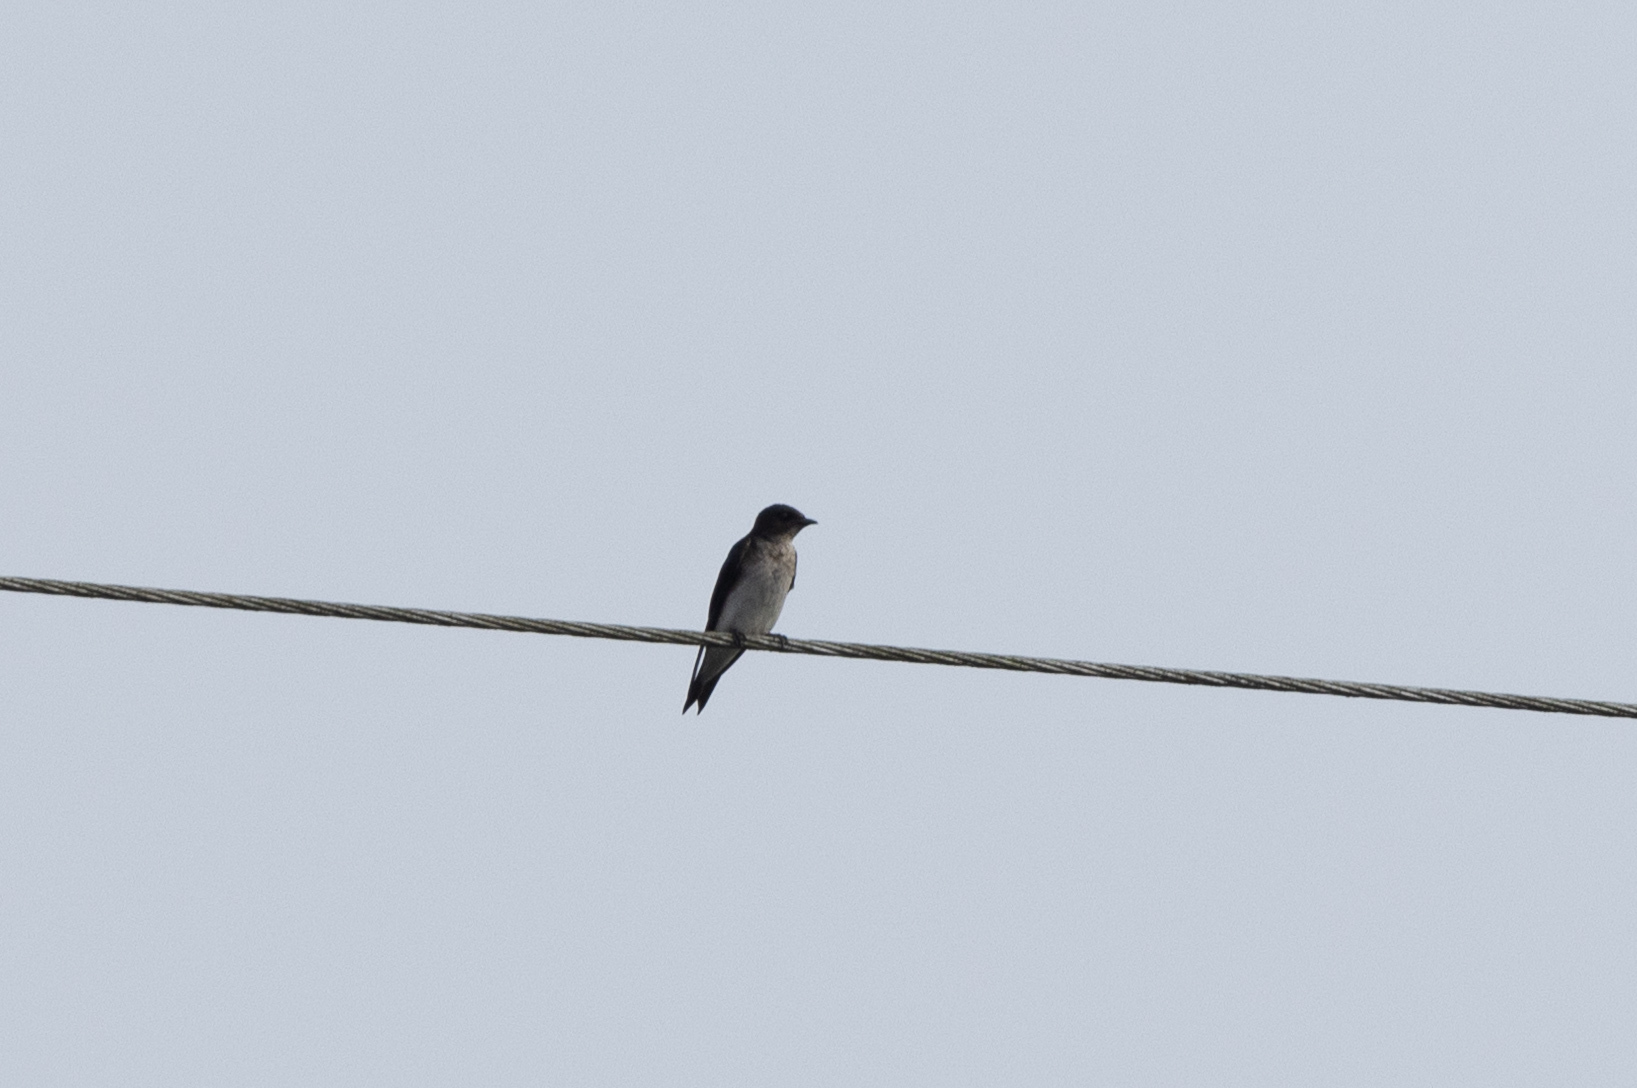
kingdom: Animalia
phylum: Chordata
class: Aves
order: Passeriformes
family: Hirundinidae
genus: Progne
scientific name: Progne chalybea
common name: Grey-breasted martin
